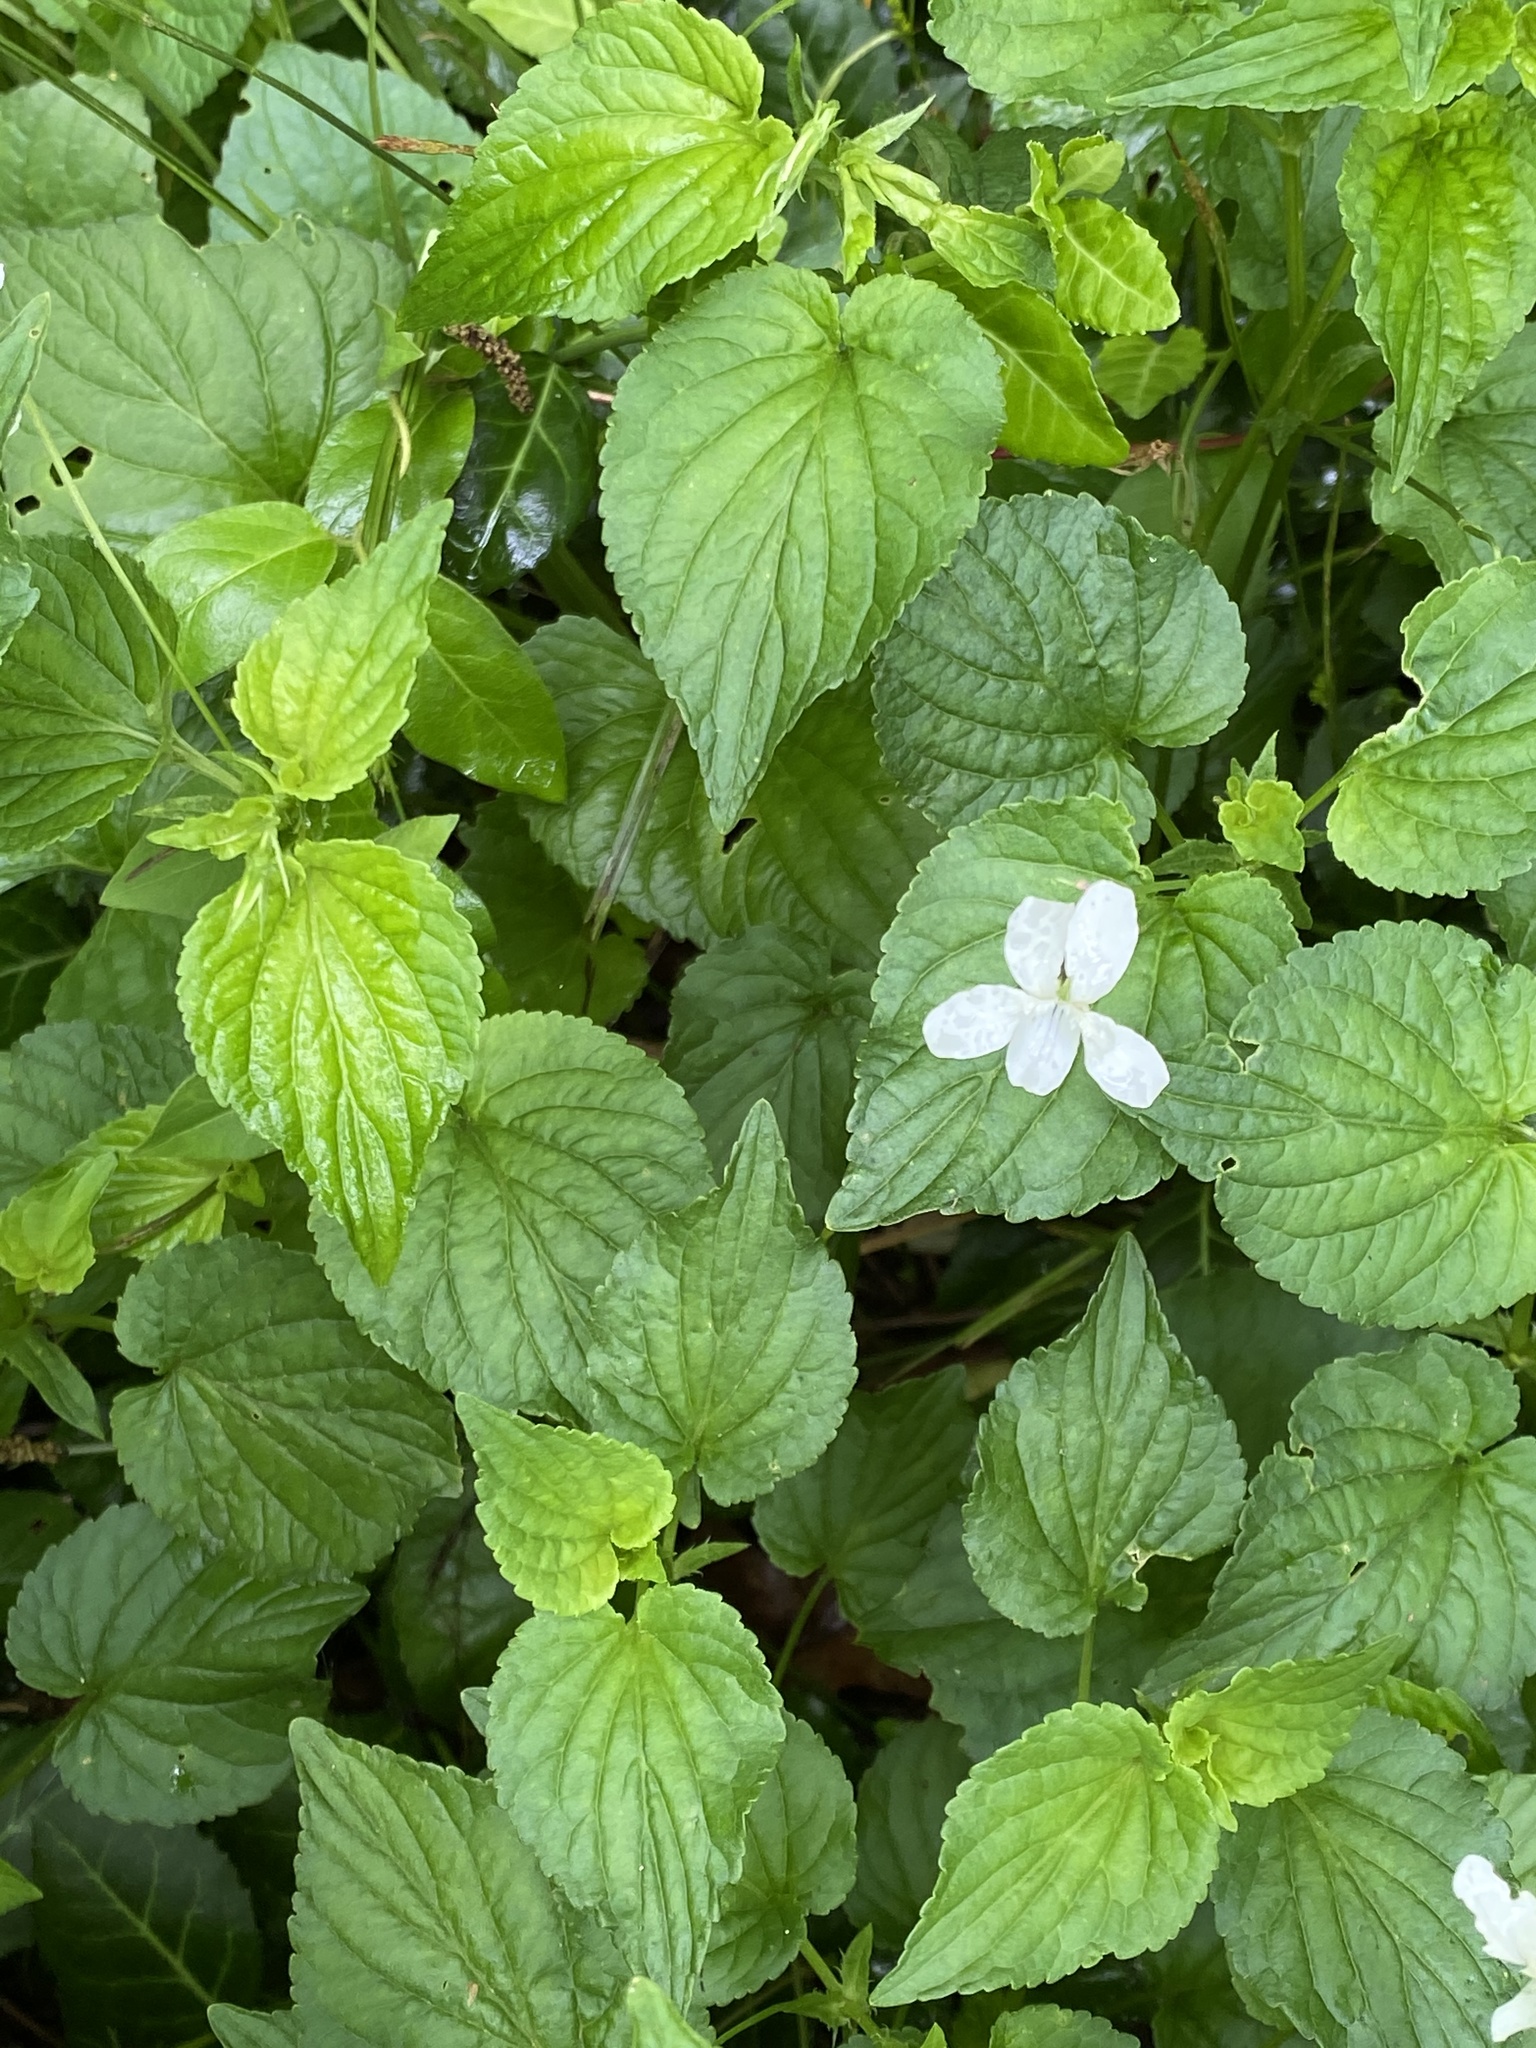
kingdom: Plantae
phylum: Tracheophyta
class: Magnoliopsida
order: Malpighiales
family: Violaceae
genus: Viola
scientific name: Viola striata
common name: Cream violet
